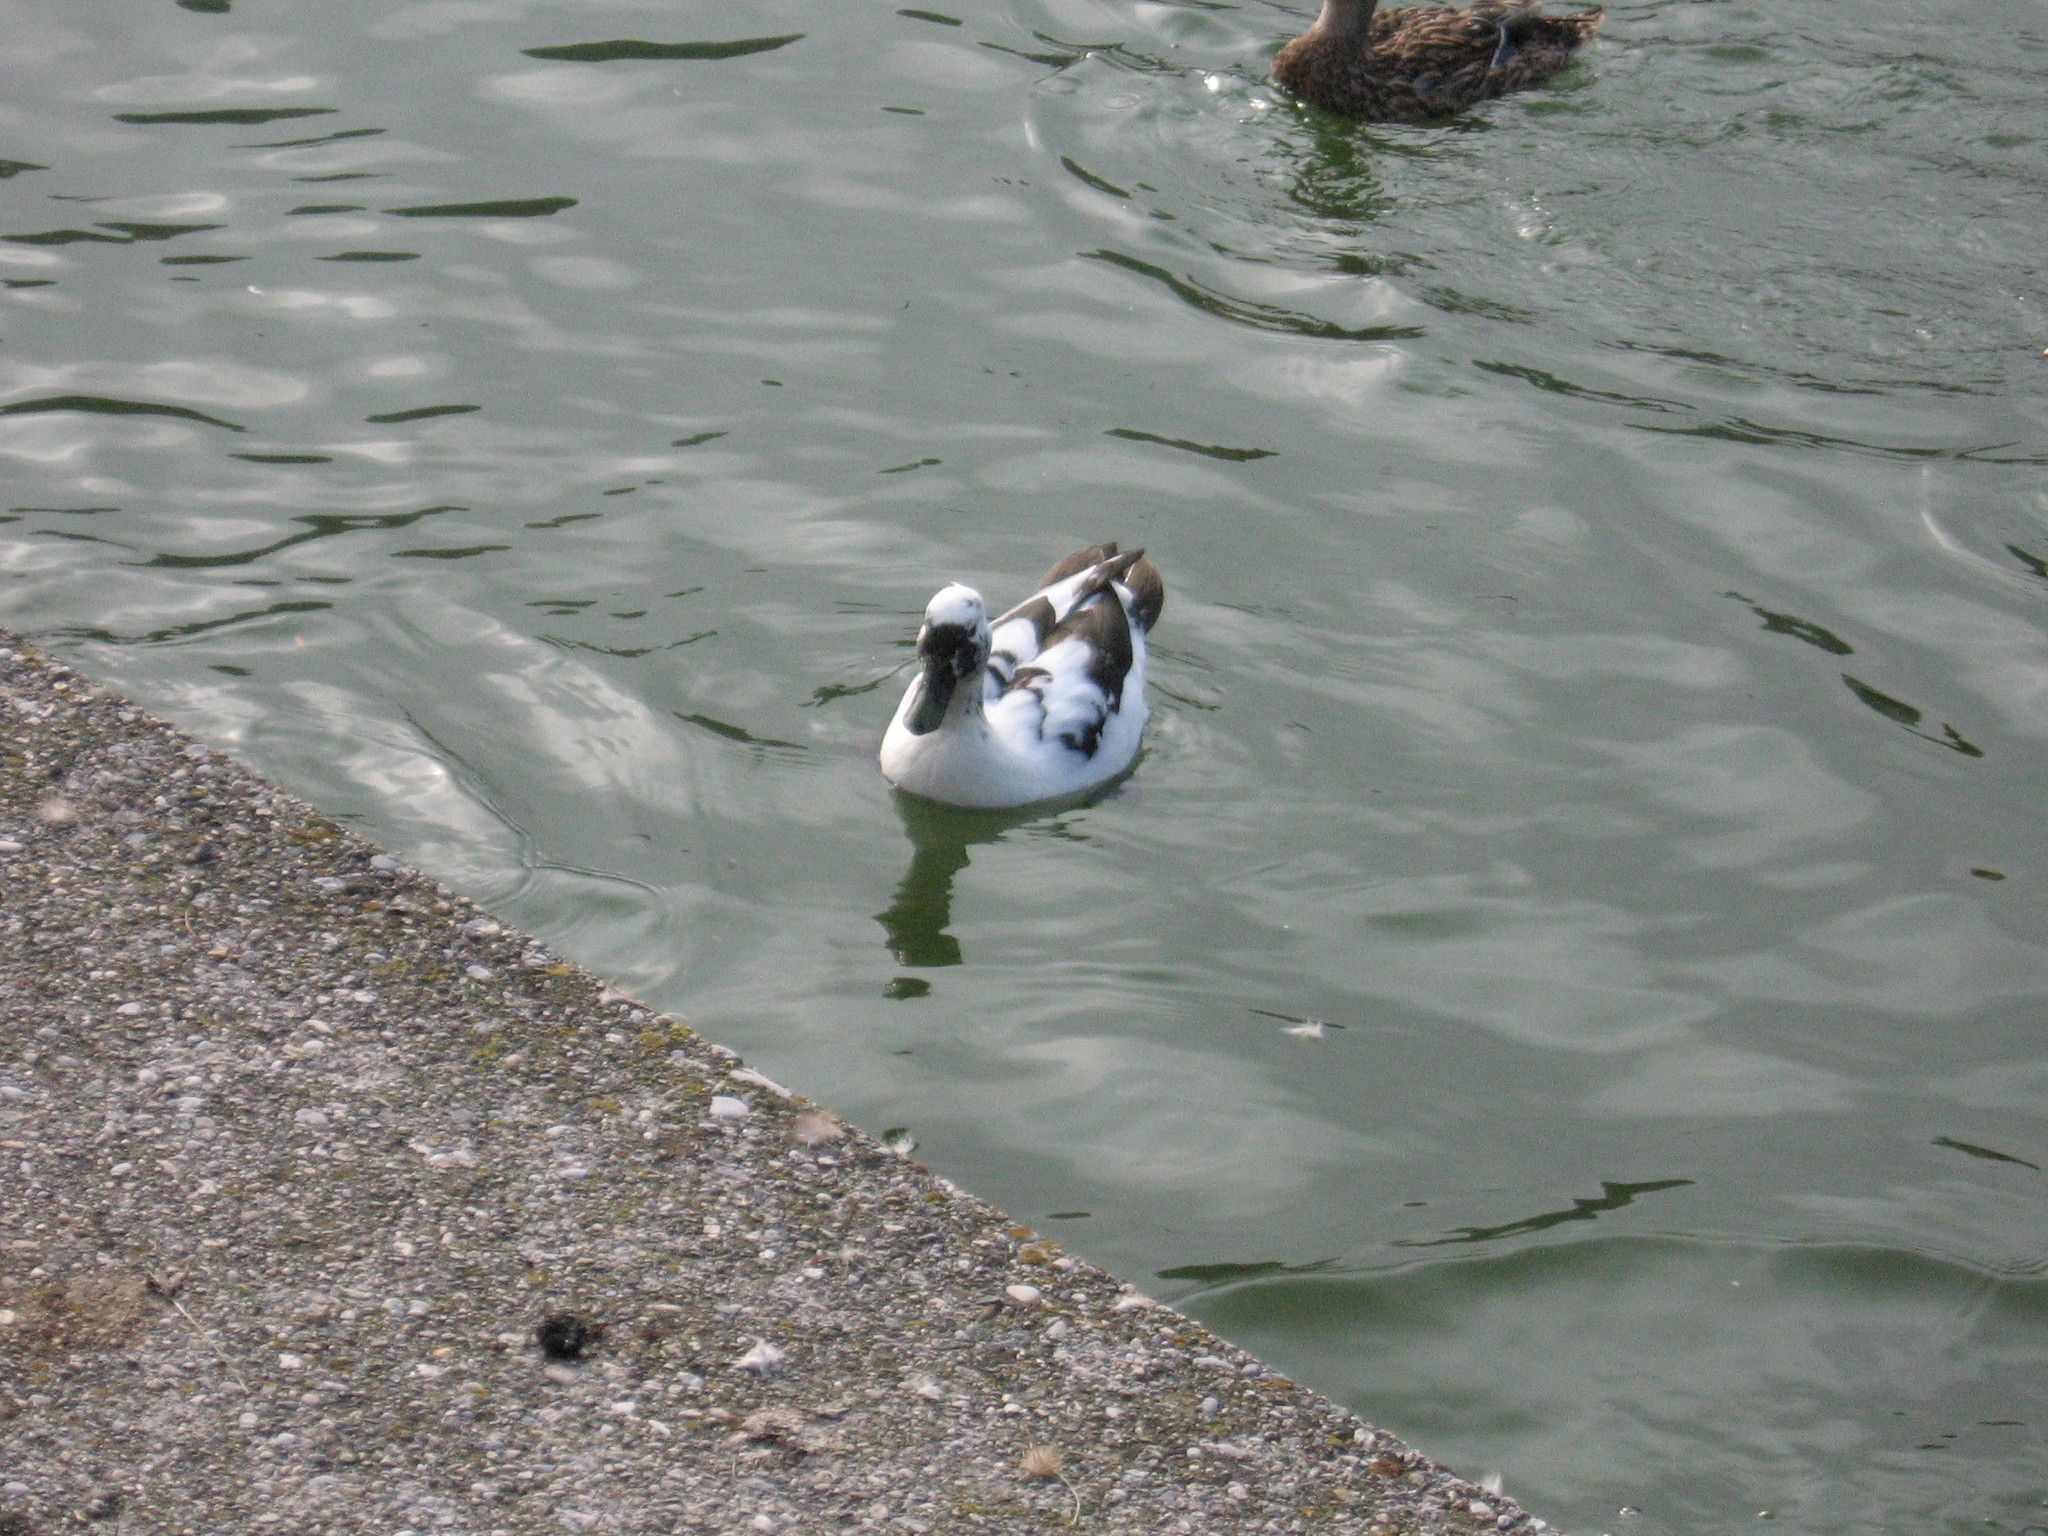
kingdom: Animalia
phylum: Chordata
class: Aves
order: Anseriformes
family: Anatidae
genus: Anas
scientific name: Anas platyrhynchos
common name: Mallard
